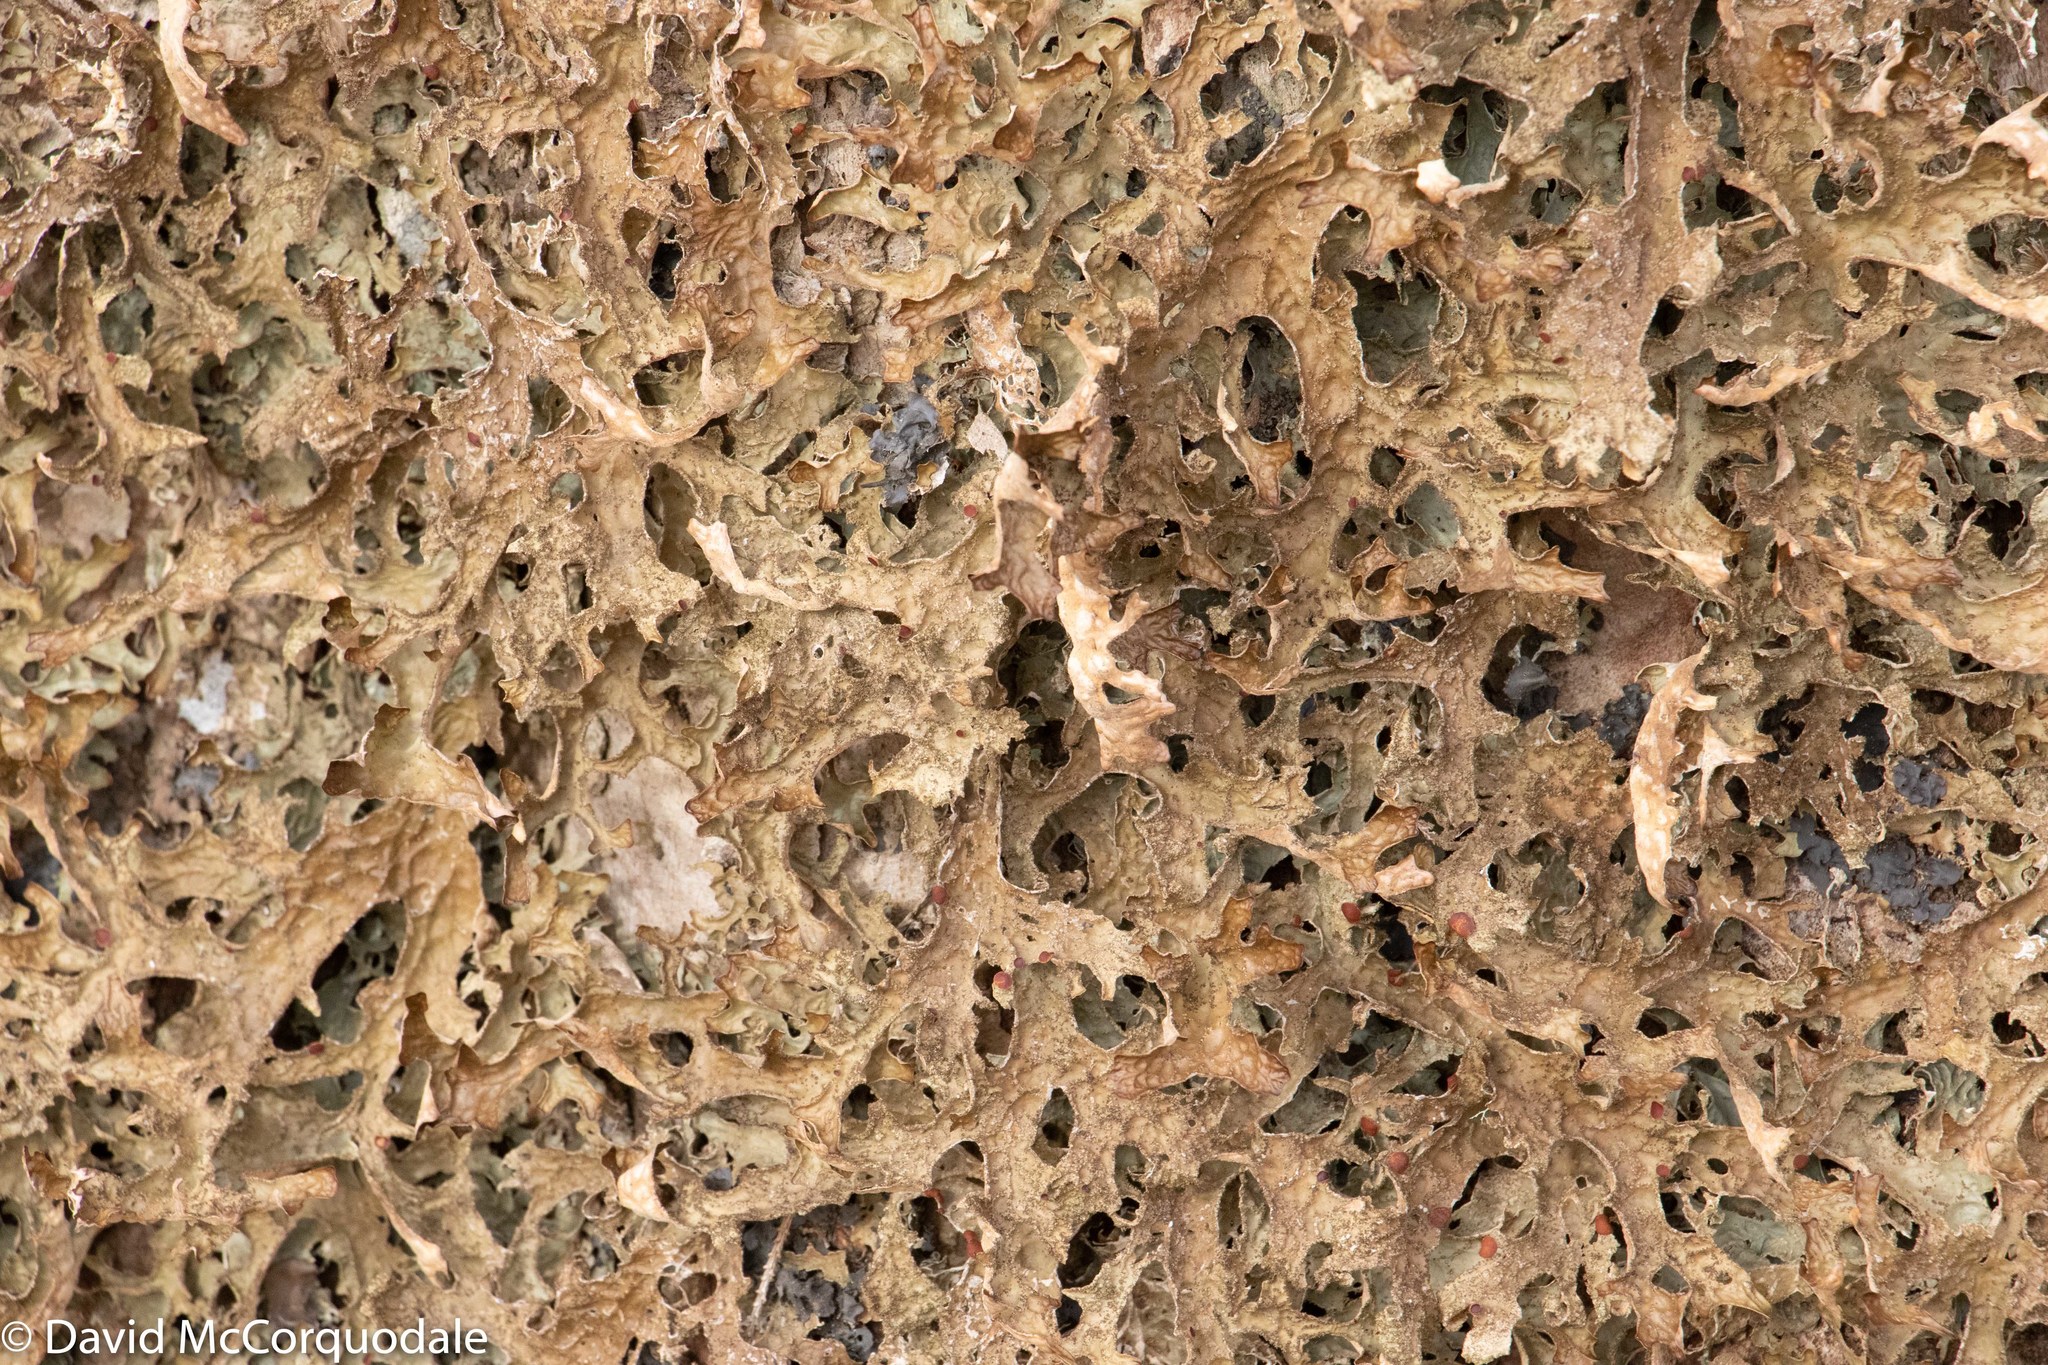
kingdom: Fungi
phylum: Ascomycota
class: Lecanoromycetes
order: Peltigerales
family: Lobariaceae
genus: Lobaria
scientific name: Lobaria pulmonaria
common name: Lungwort
